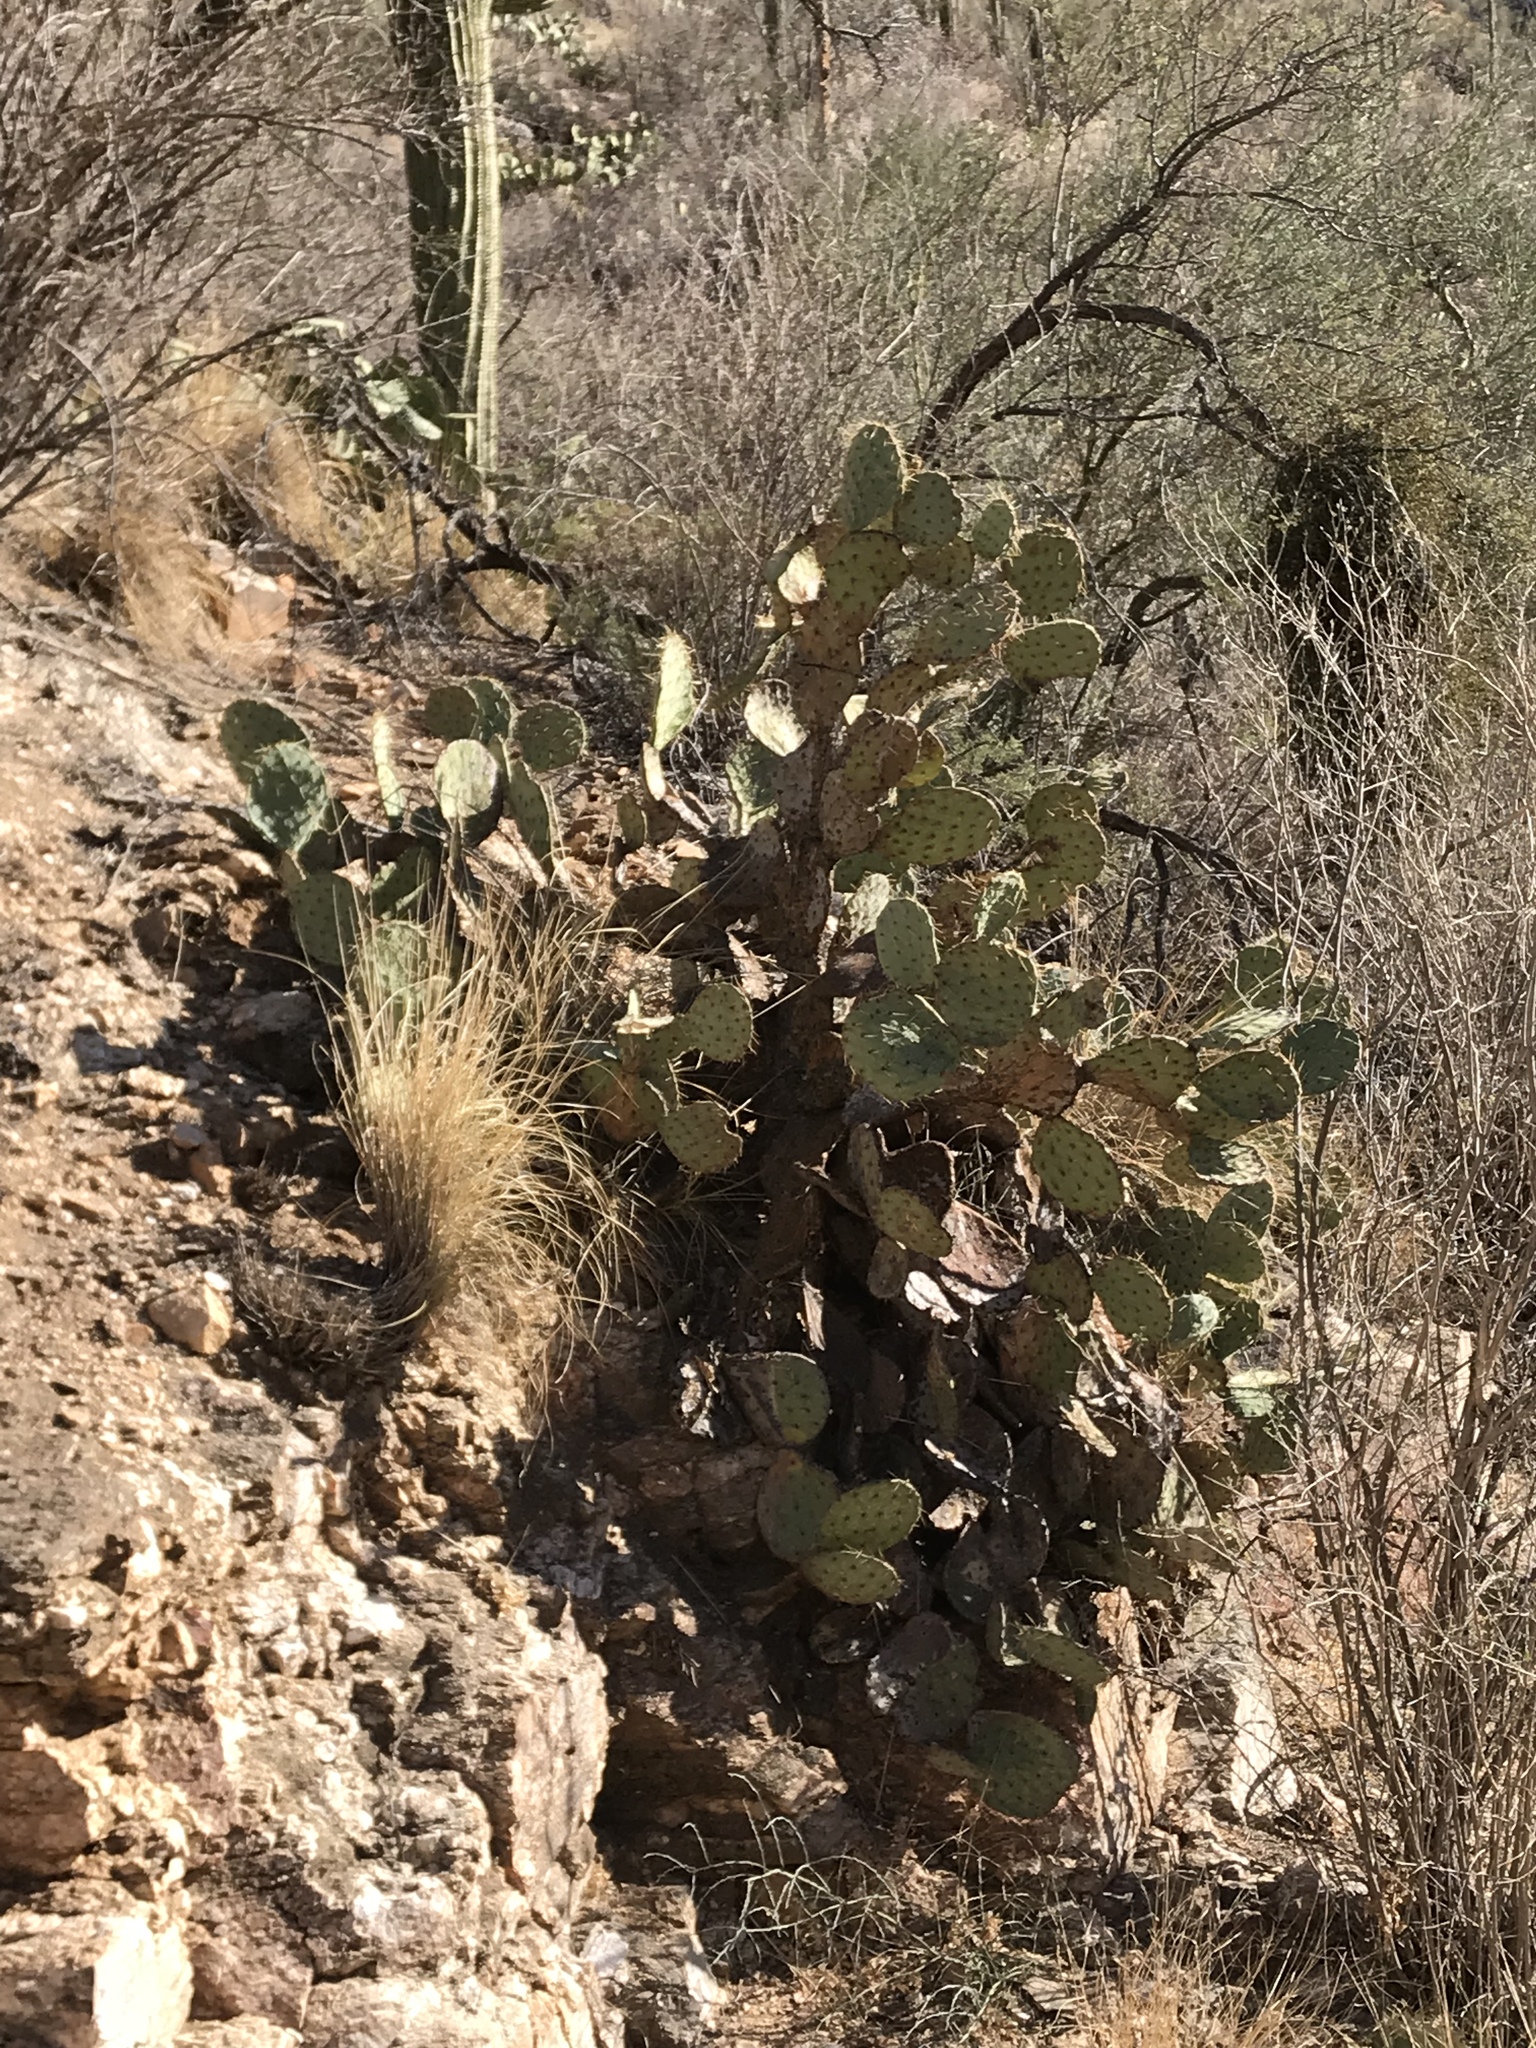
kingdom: Plantae
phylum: Tracheophyta
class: Magnoliopsida
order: Caryophyllales
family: Cactaceae
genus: Opuntia
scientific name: Opuntia chlorotica
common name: Dollar-joint prickly-pear
